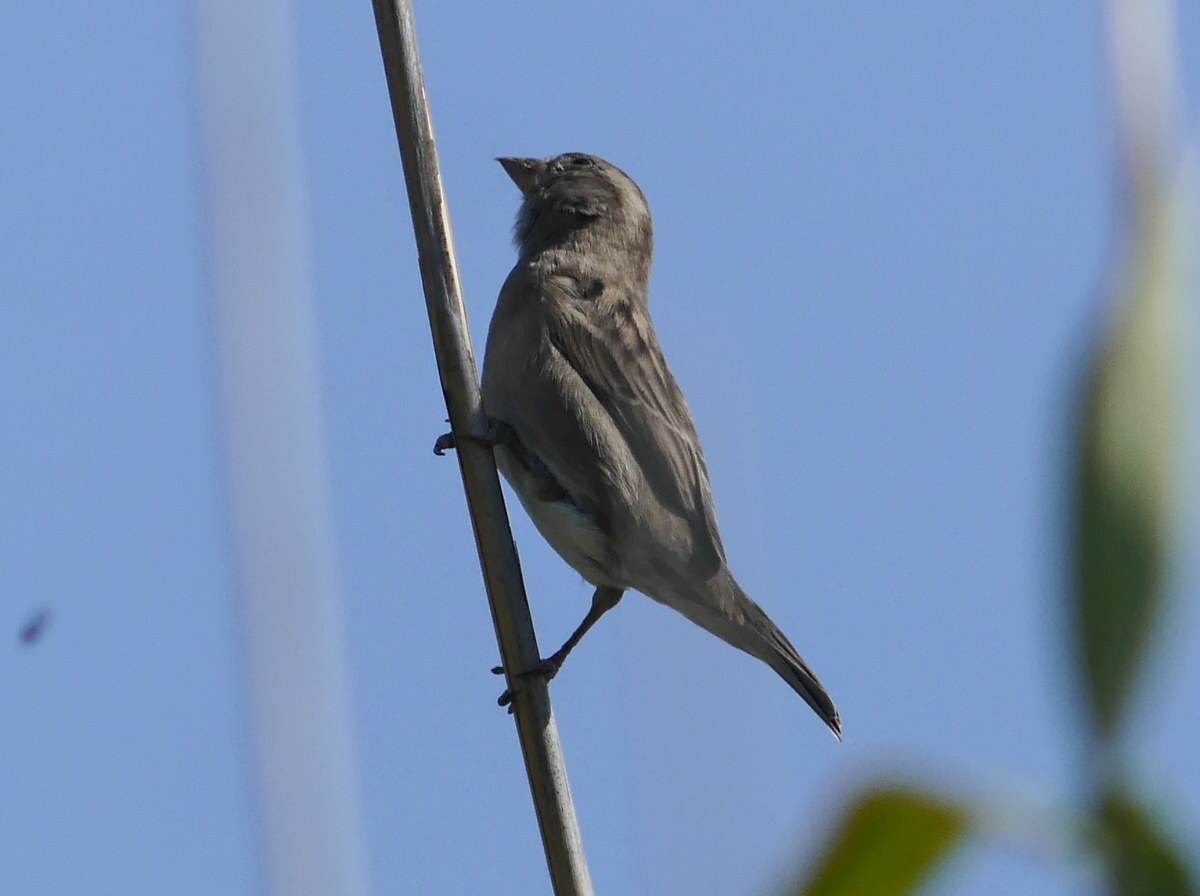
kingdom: Animalia
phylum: Chordata
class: Aves
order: Passeriformes
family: Passeridae
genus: Passer
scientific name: Passer domesticus
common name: House sparrow
